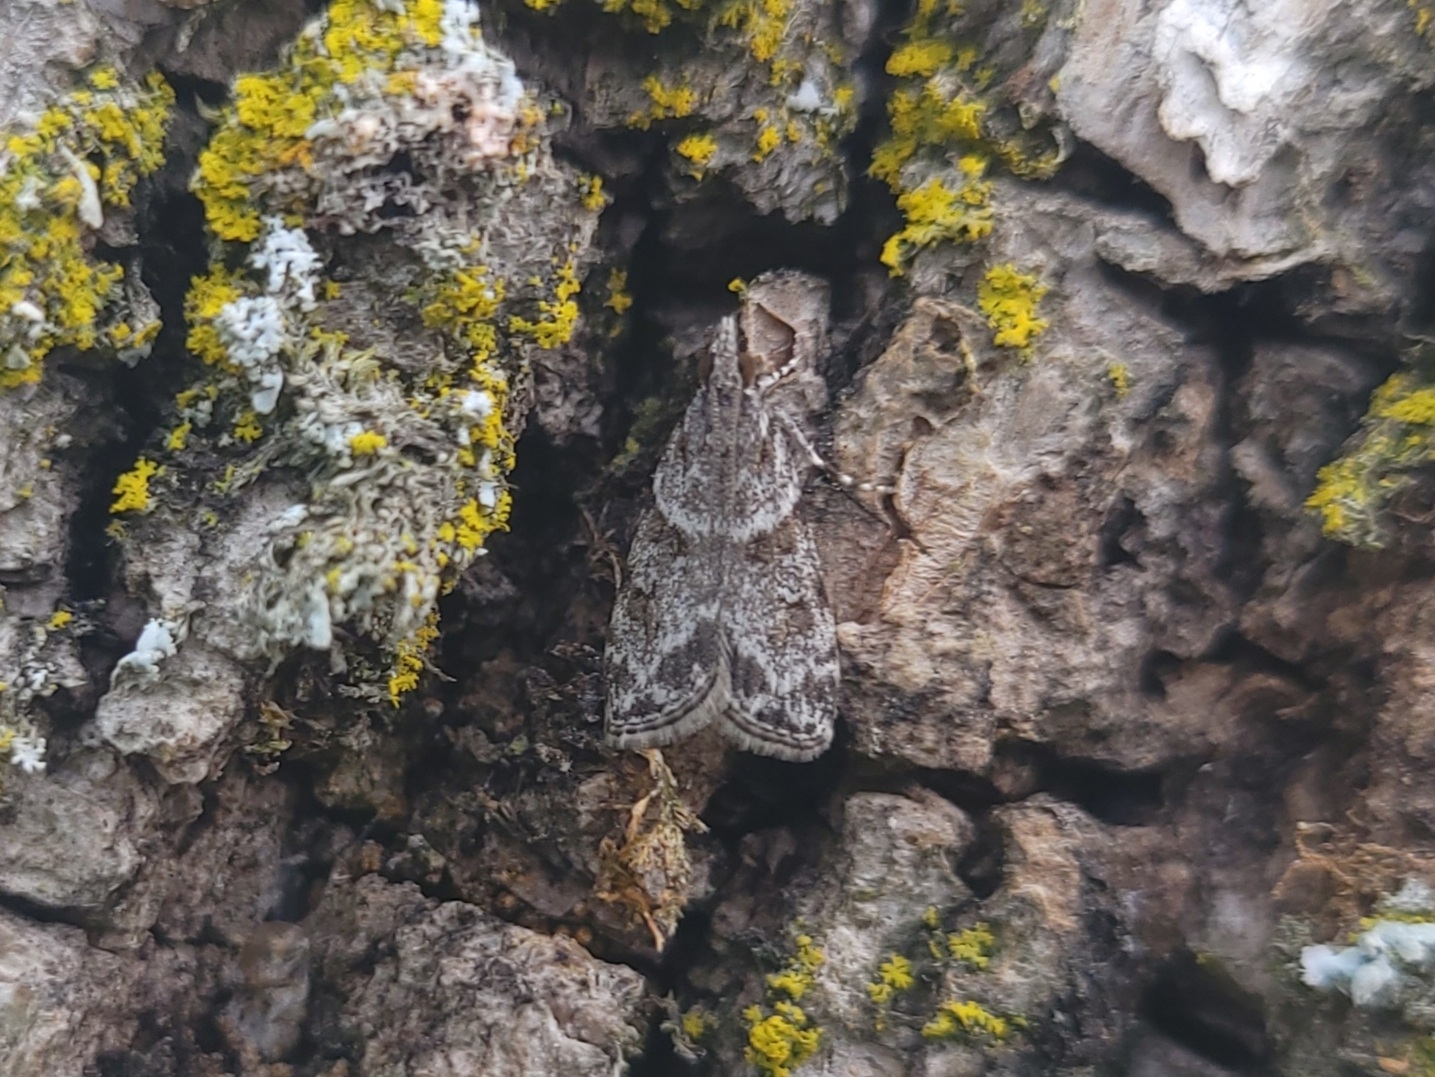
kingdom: Animalia
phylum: Arthropoda
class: Insecta
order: Lepidoptera
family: Crambidae
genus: Scoparia
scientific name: Scoparia biplagialis
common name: Double-striped scoparia moth
